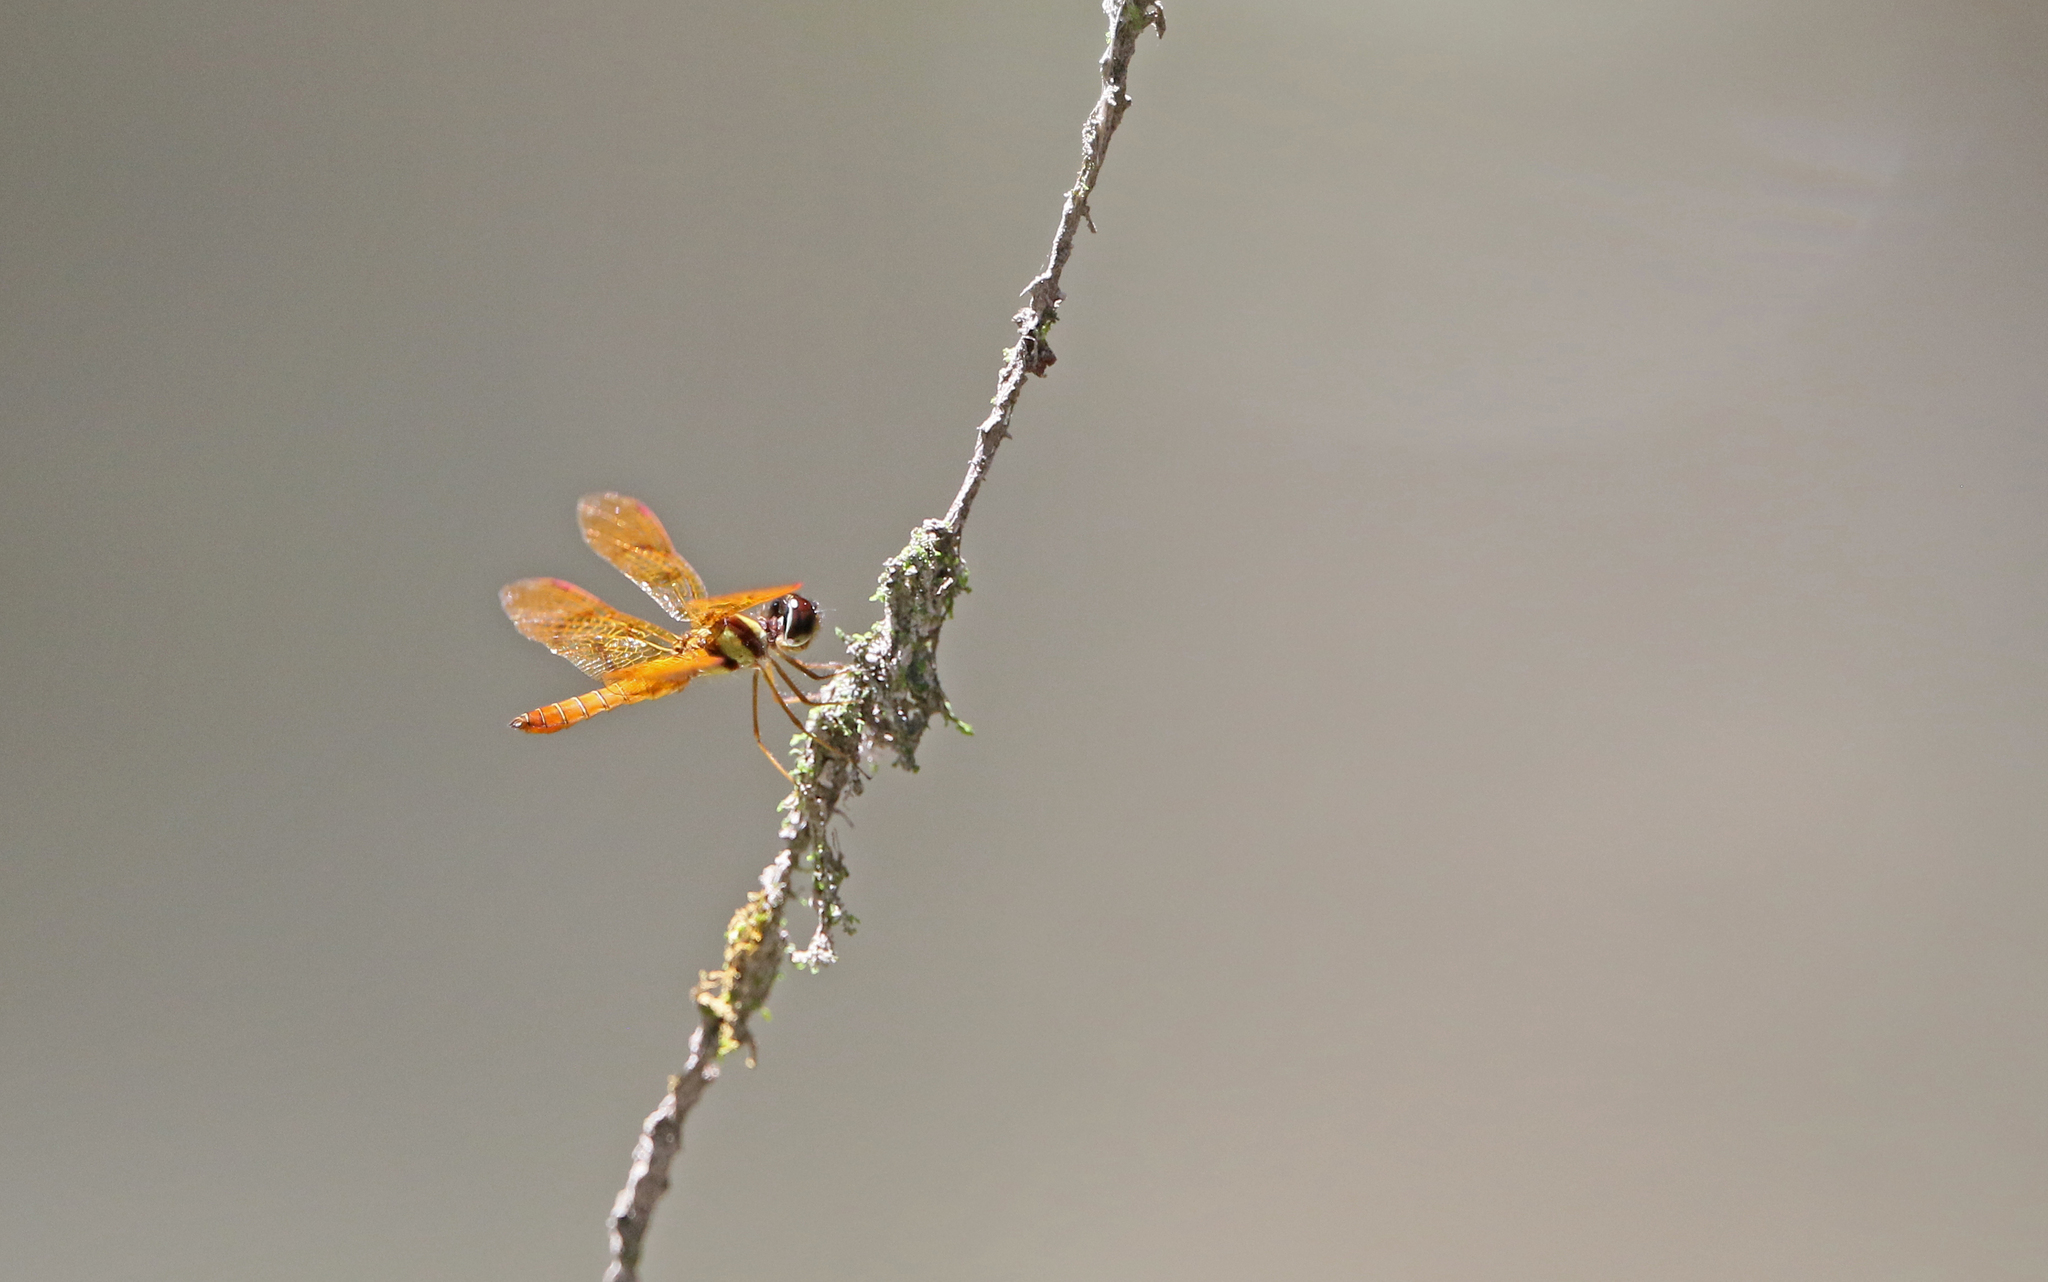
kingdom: Animalia
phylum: Arthropoda
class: Insecta
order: Odonata
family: Libellulidae
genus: Perithemis
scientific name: Perithemis lais
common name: Fine-banded amberwing
